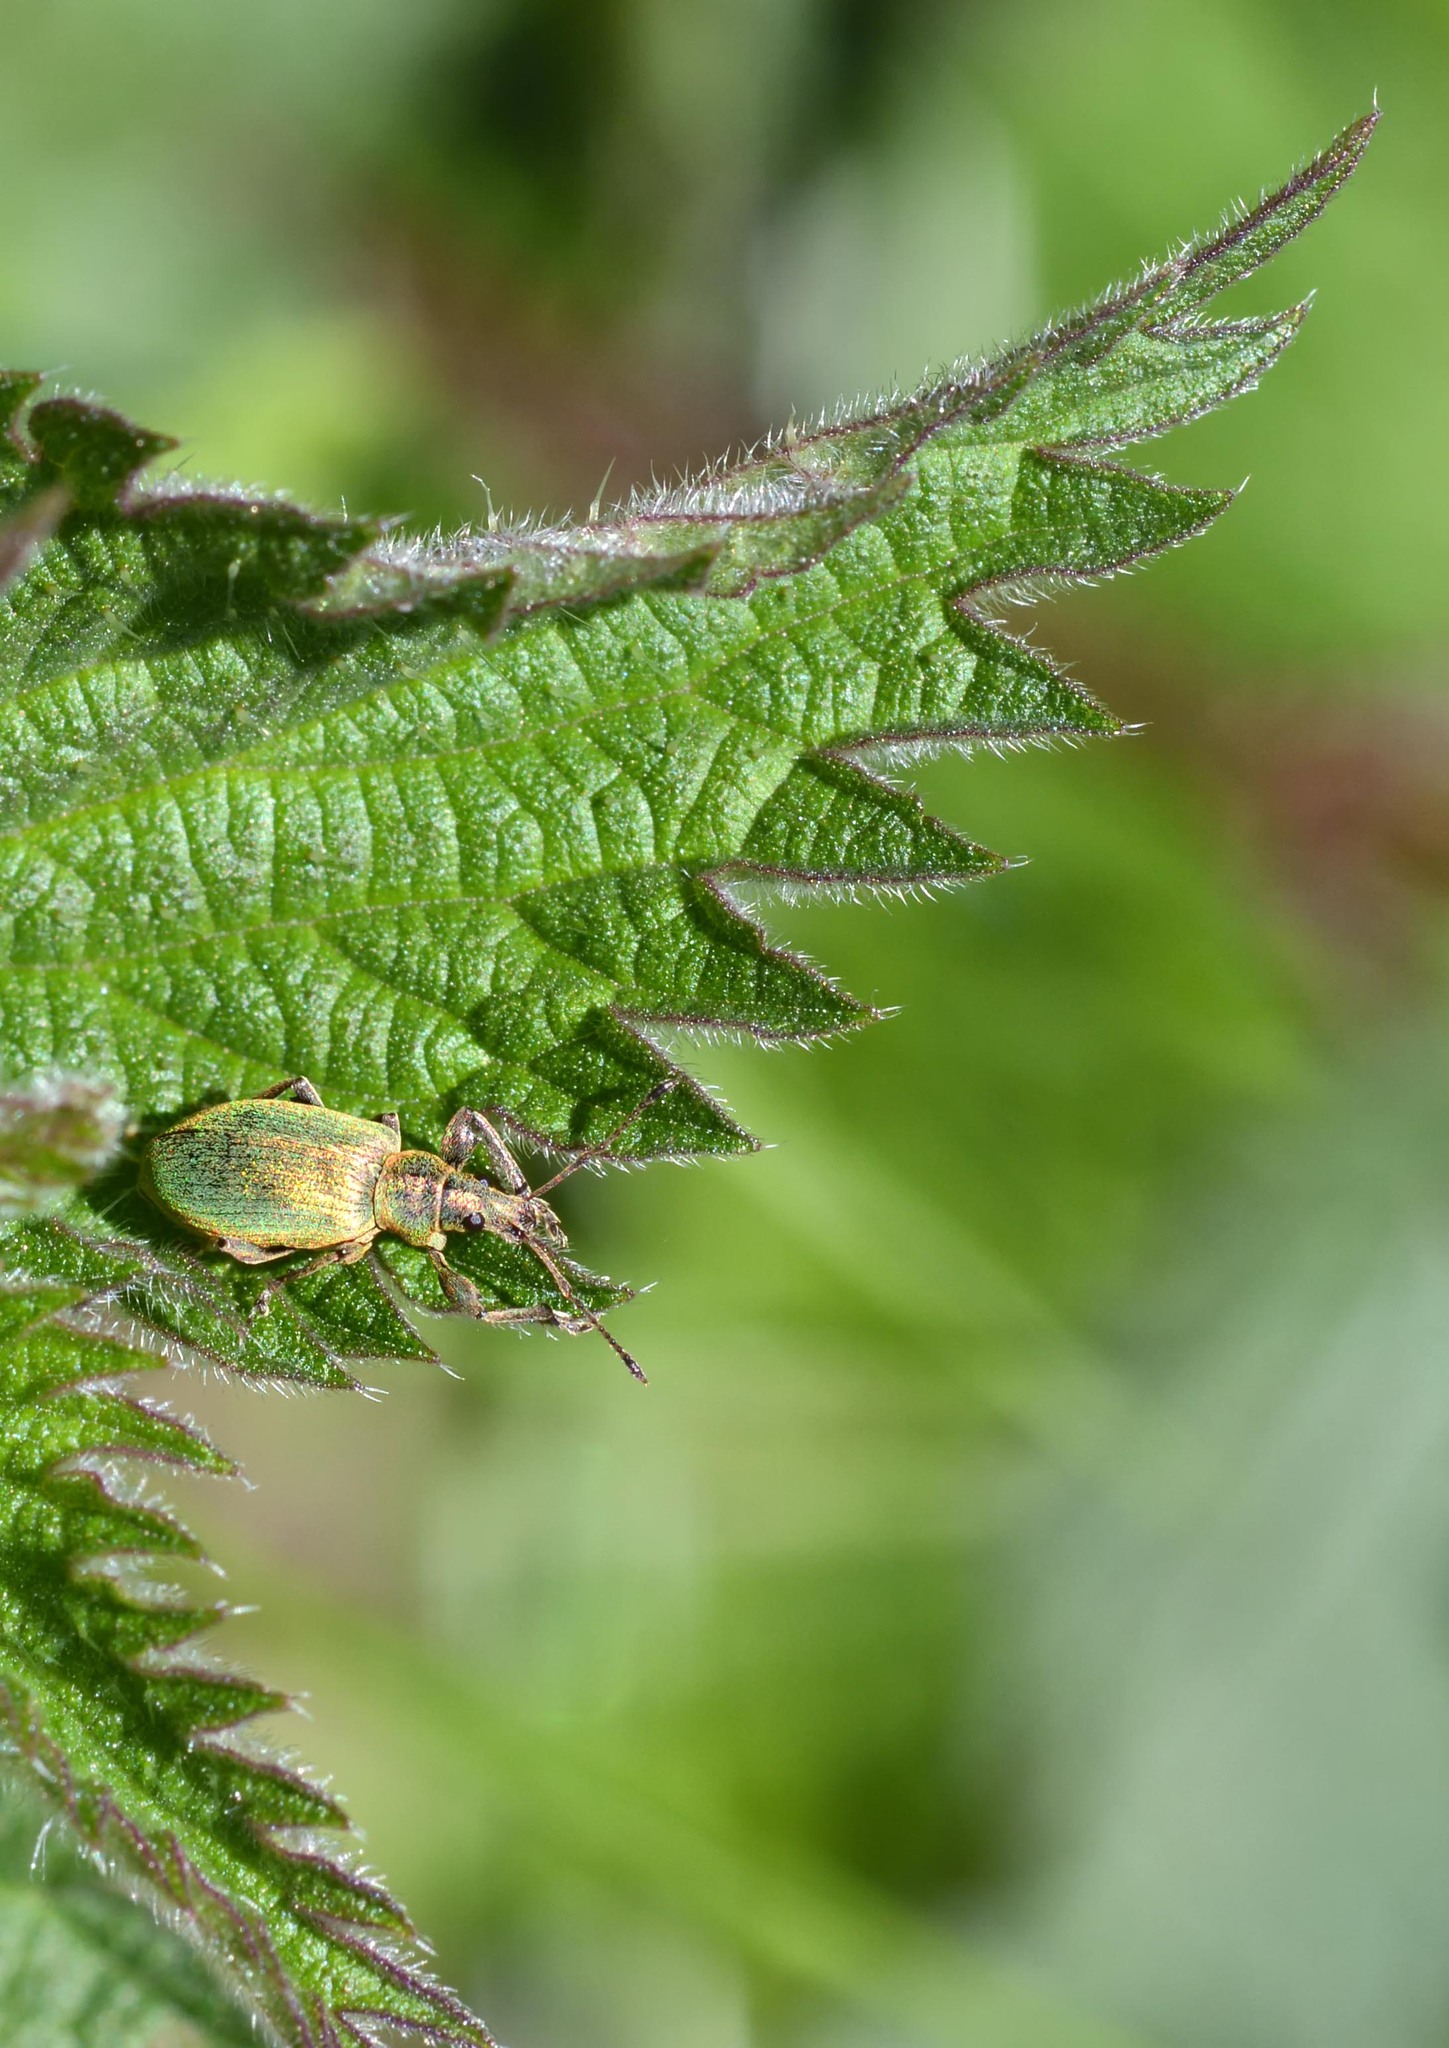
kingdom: Animalia
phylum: Arthropoda
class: Insecta
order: Coleoptera
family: Curculionidae
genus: Phyllobius
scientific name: Phyllobius pomaceus
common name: Green nettle weevil
